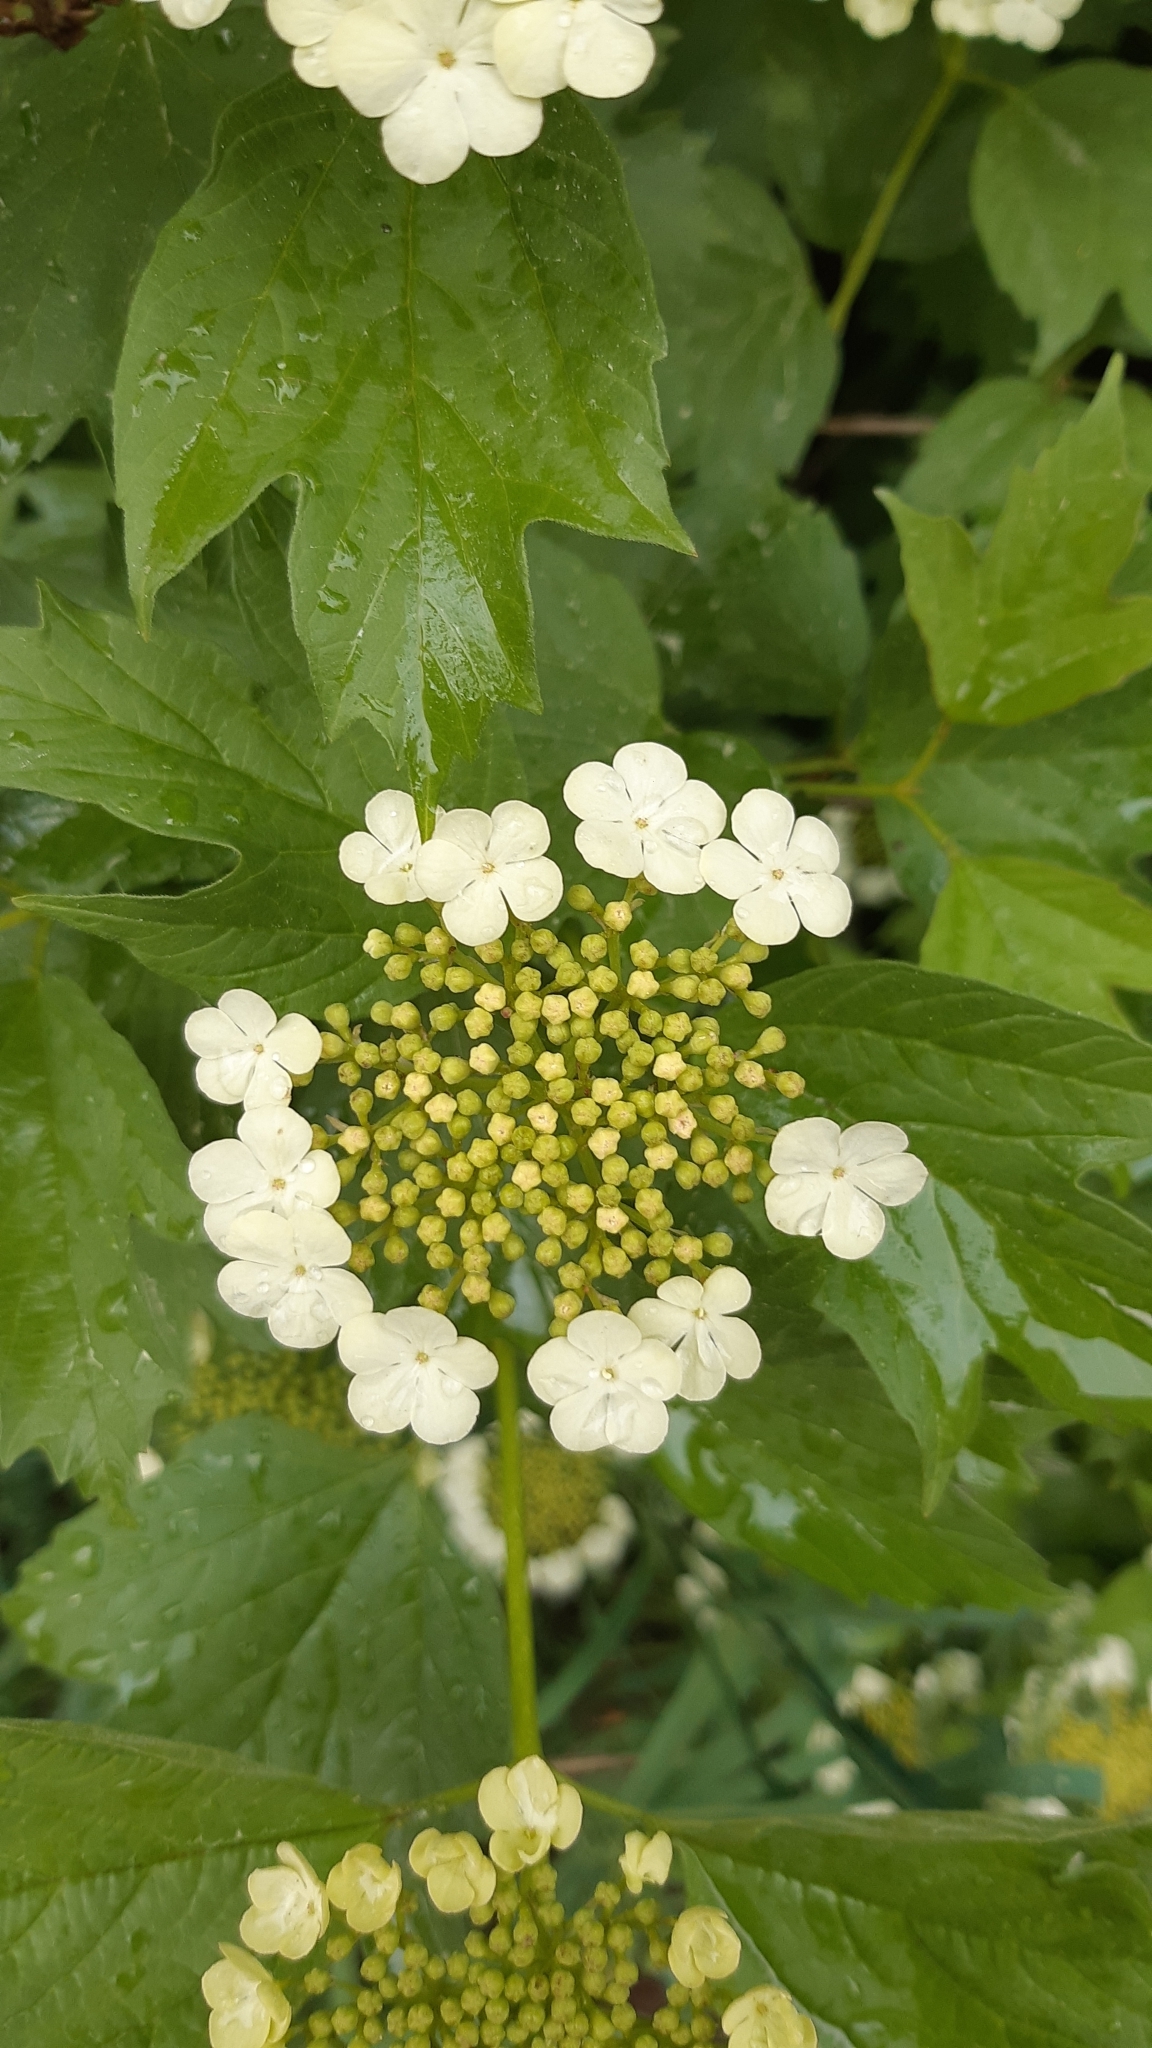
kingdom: Plantae
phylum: Tracheophyta
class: Magnoliopsida
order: Dipsacales
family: Viburnaceae
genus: Viburnum
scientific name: Viburnum opulus
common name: Guelder-rose
